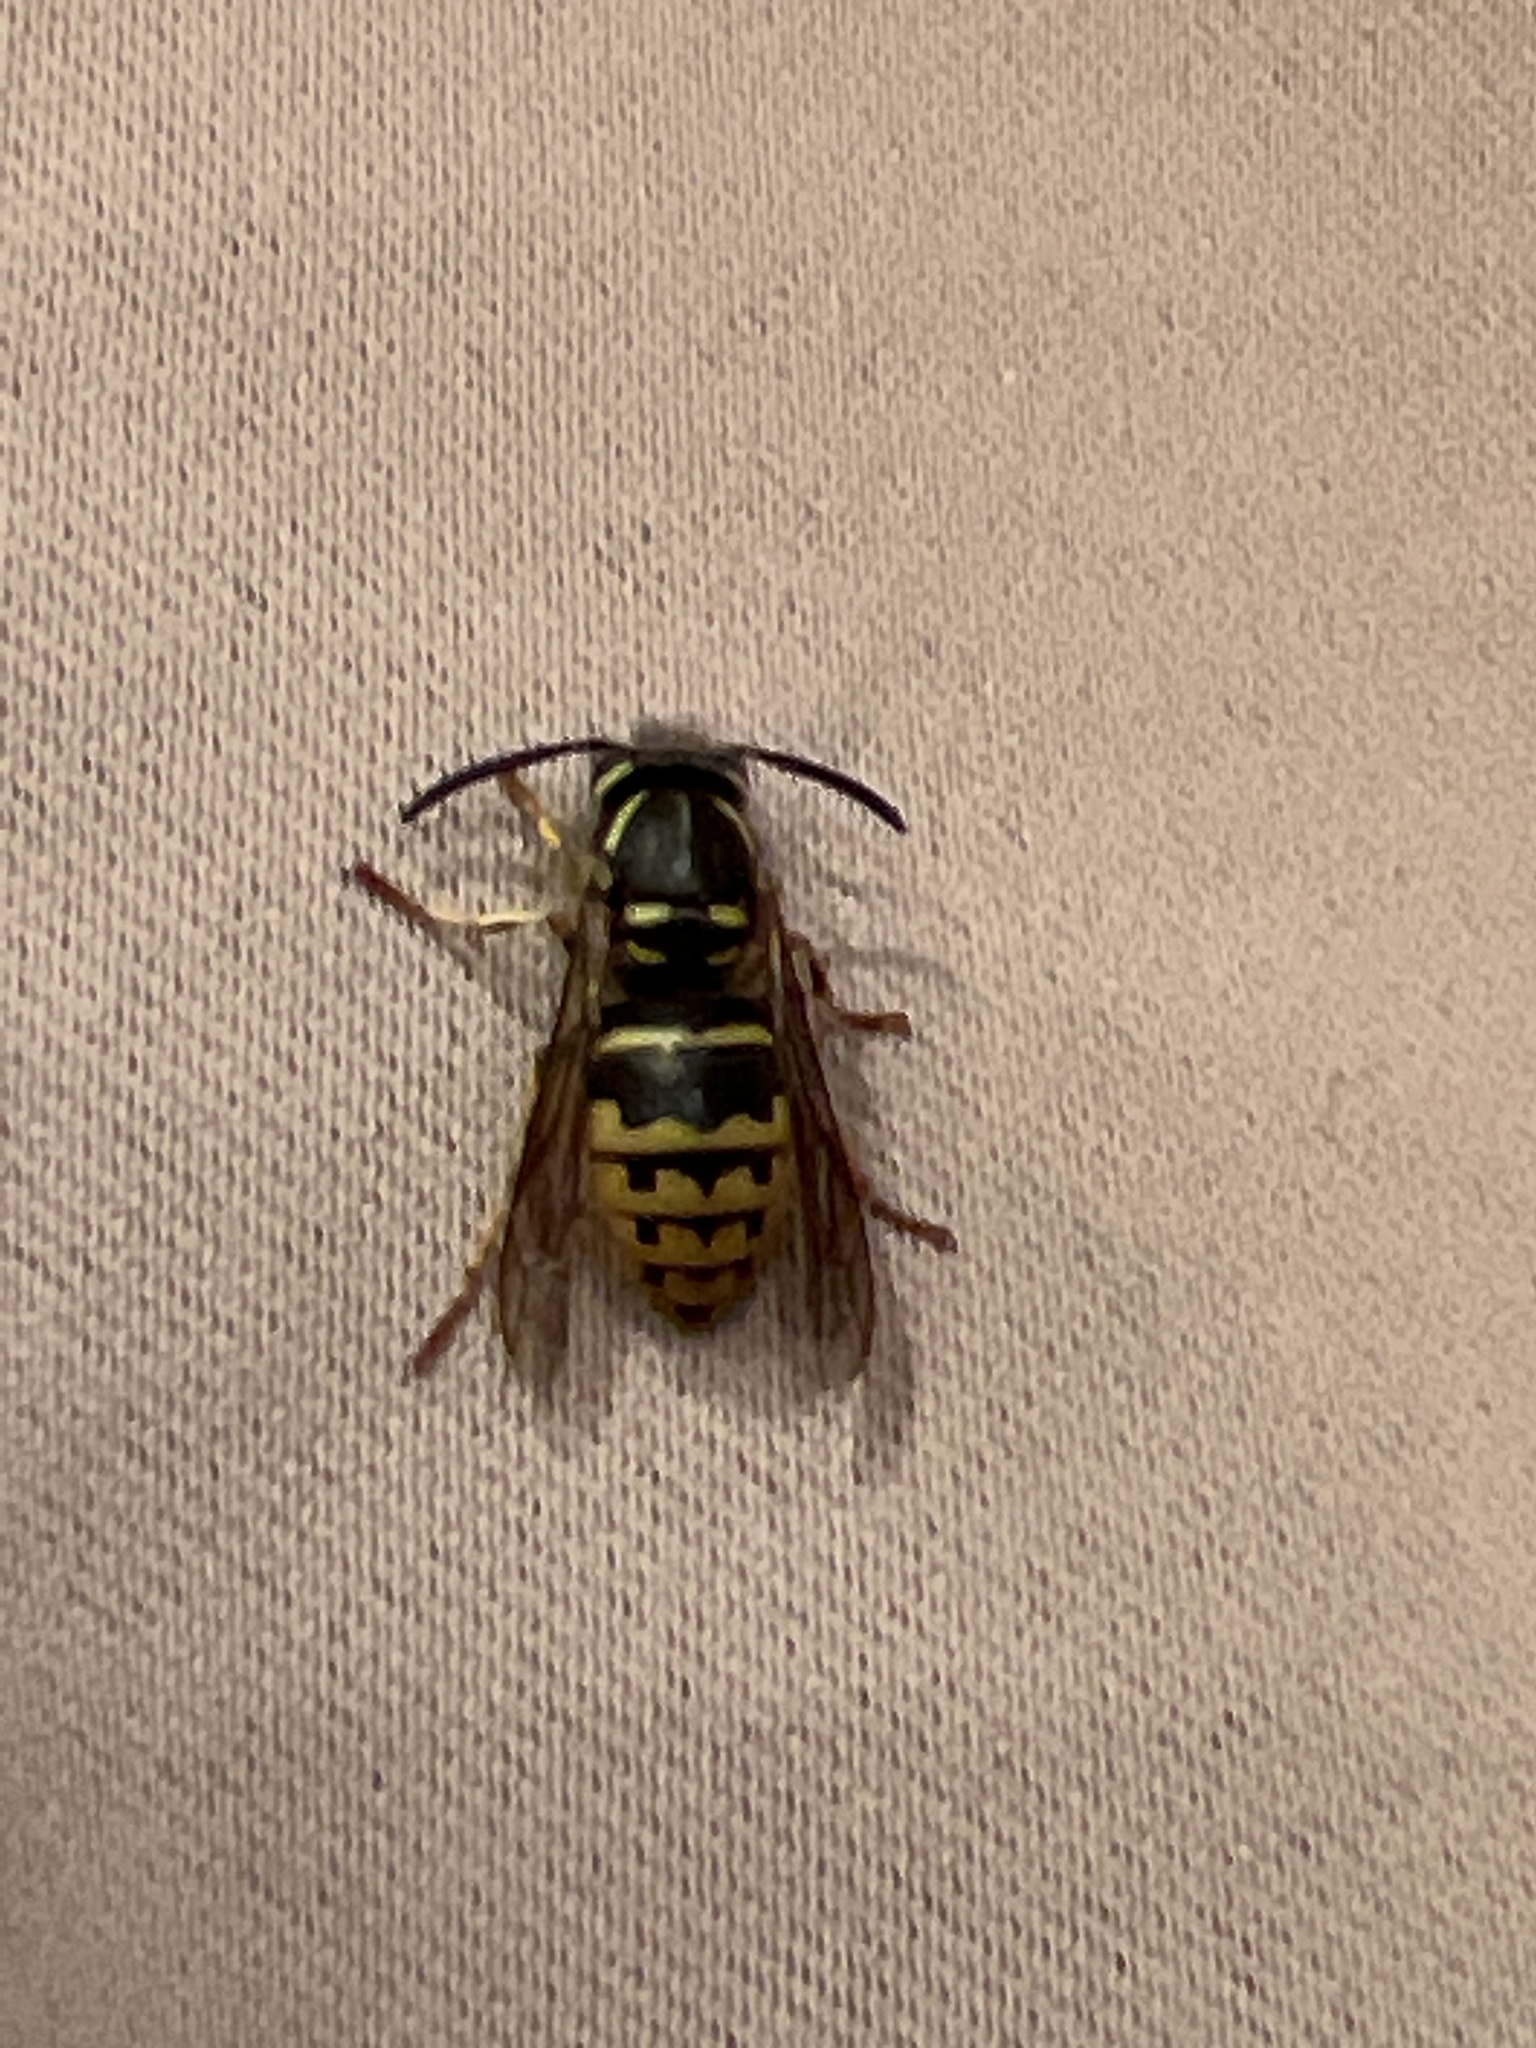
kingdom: Animalia
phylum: Arthropoda
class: Insecta
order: Hymenoptera
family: Vespidae
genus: Vespula
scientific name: Vespula alascensis
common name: Alaska yellowjacket
